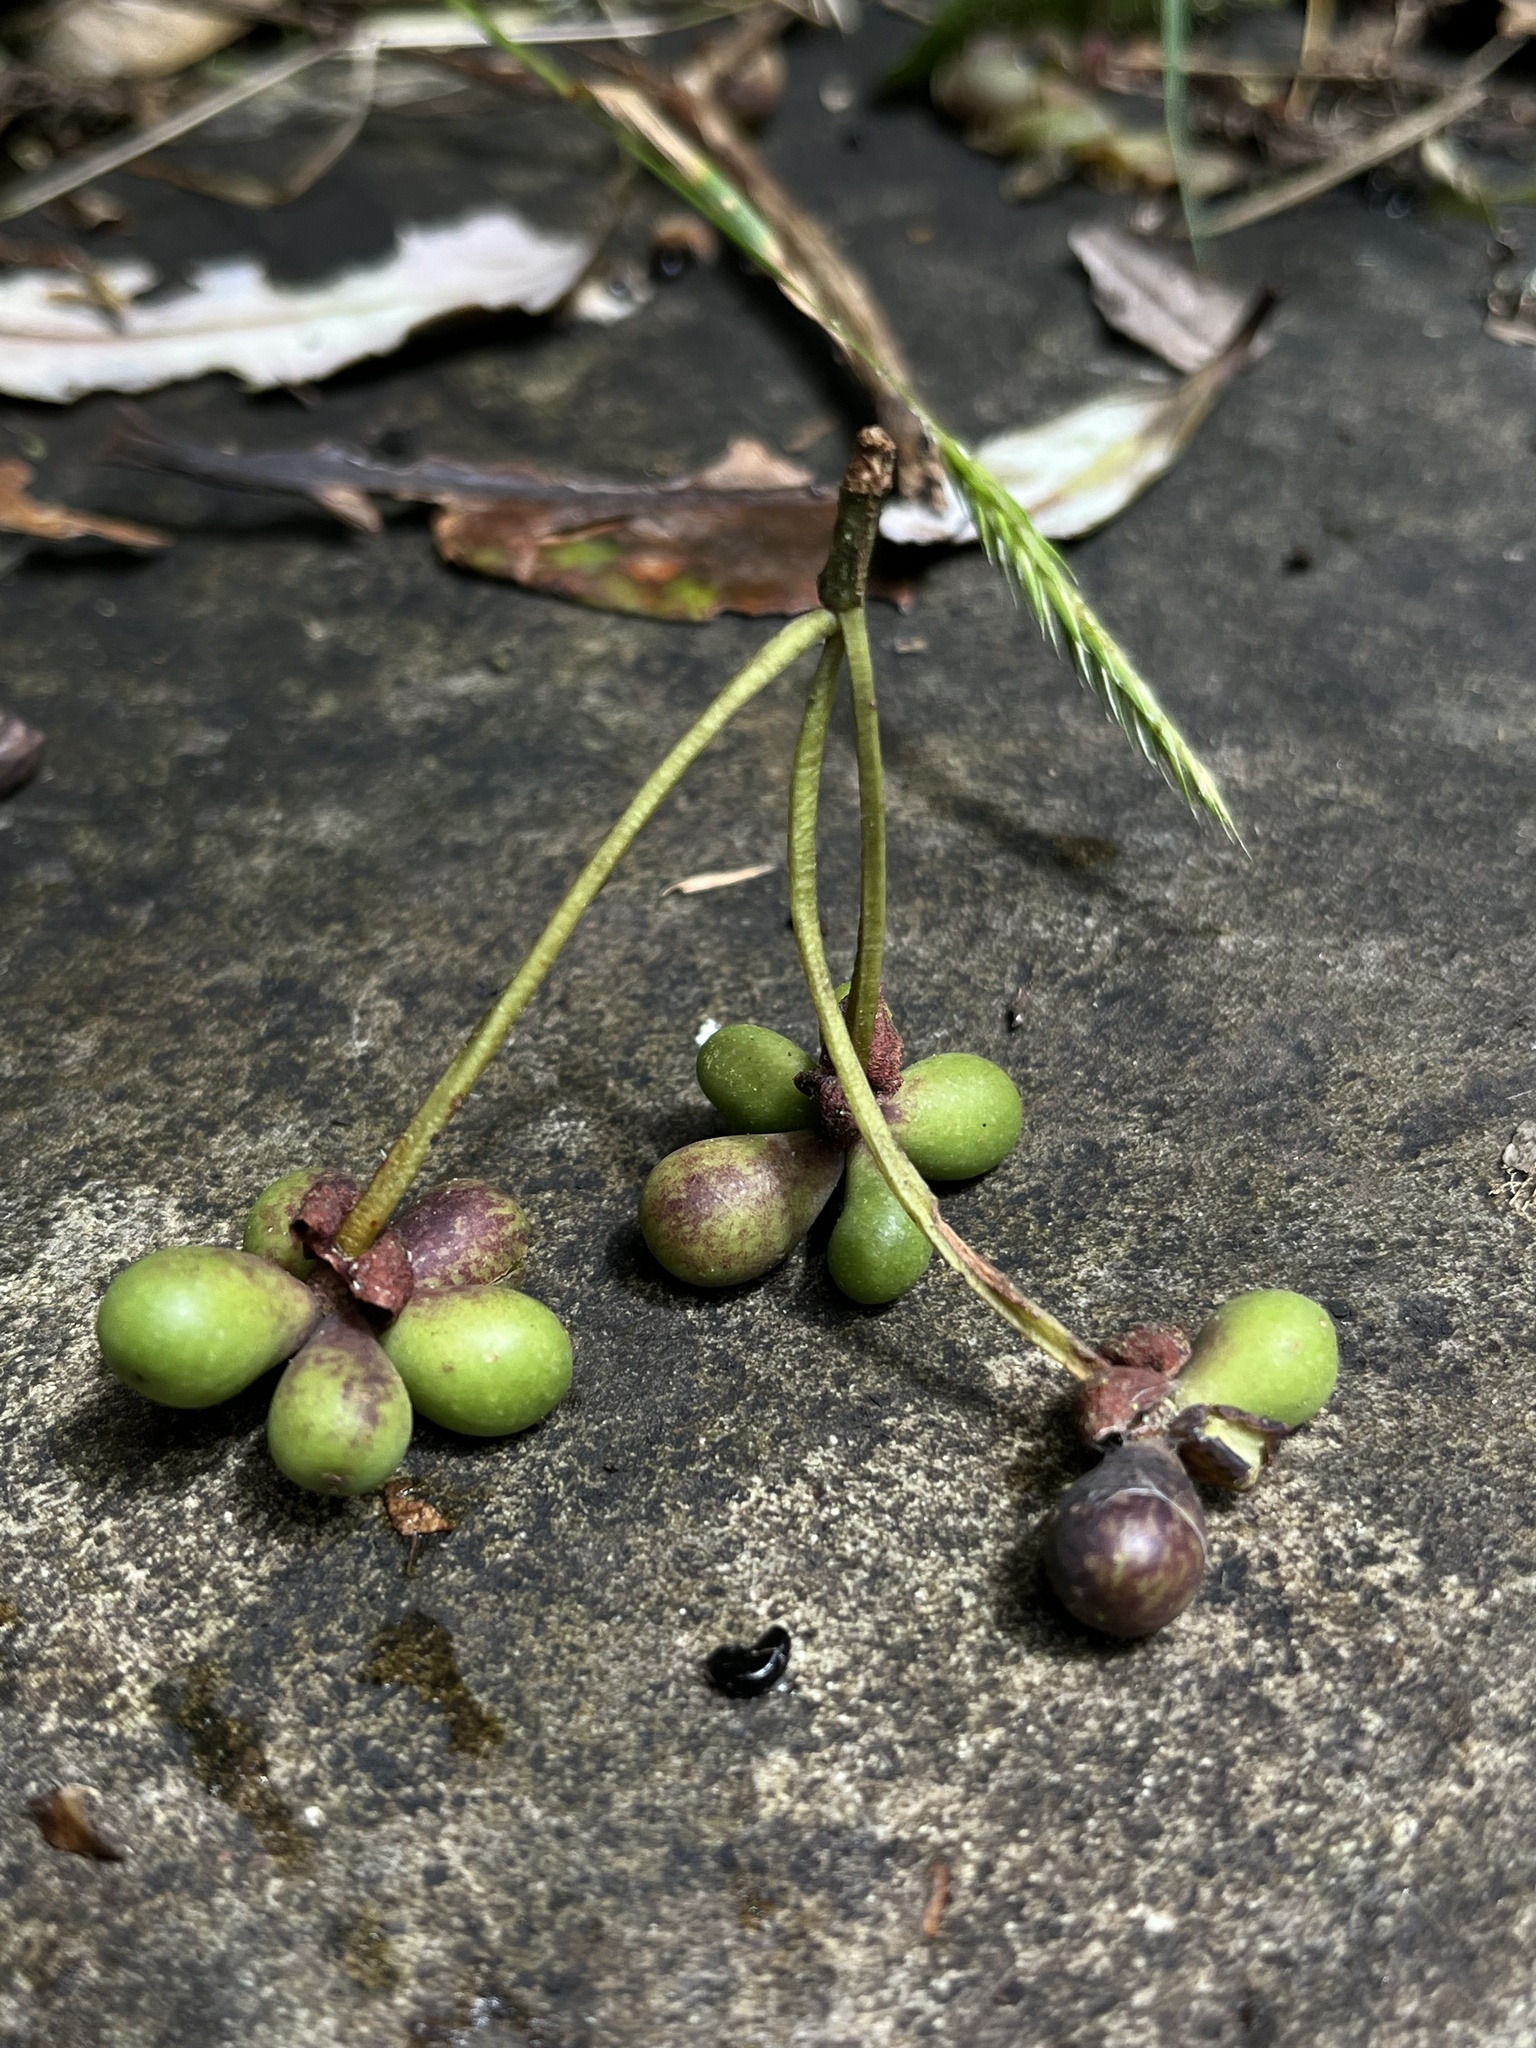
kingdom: Plantae
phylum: Tracheophyta
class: Magnoliopsida
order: Canellales
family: Winteraceae
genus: Drimys
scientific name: Drimys granadensis
